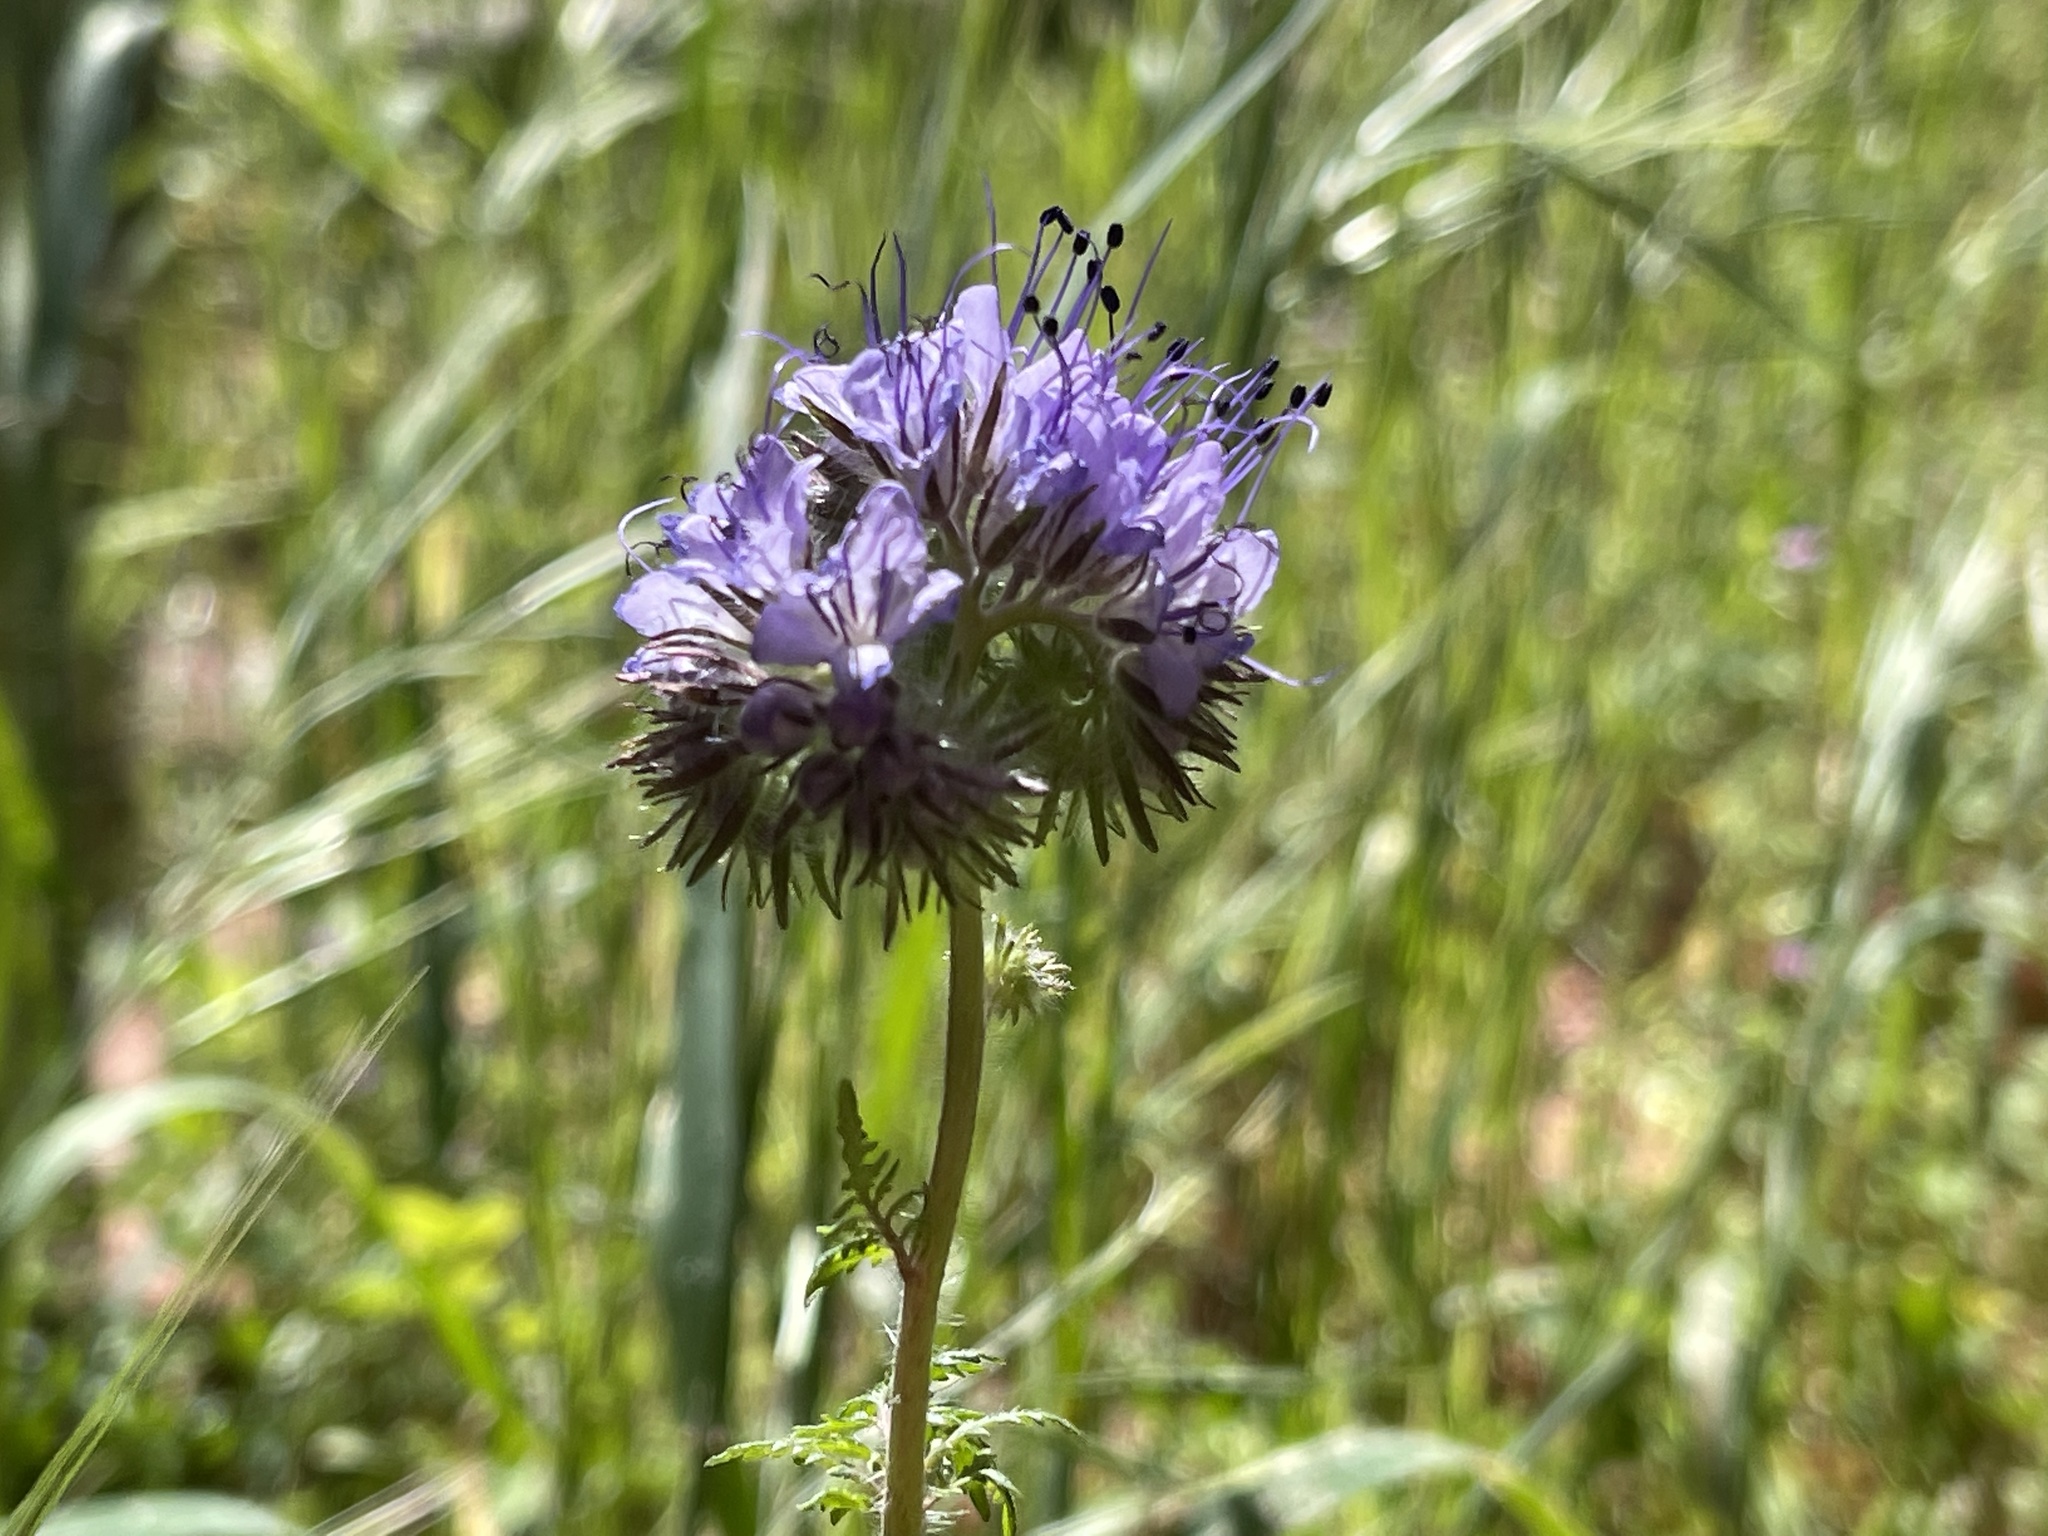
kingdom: Plantae
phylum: Tracheophyta
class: Magnoliopsida
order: Boraginales
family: Hydrophyllaceae
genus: Phacelia
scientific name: Phacelia tanacetifolia
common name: Phacelia
